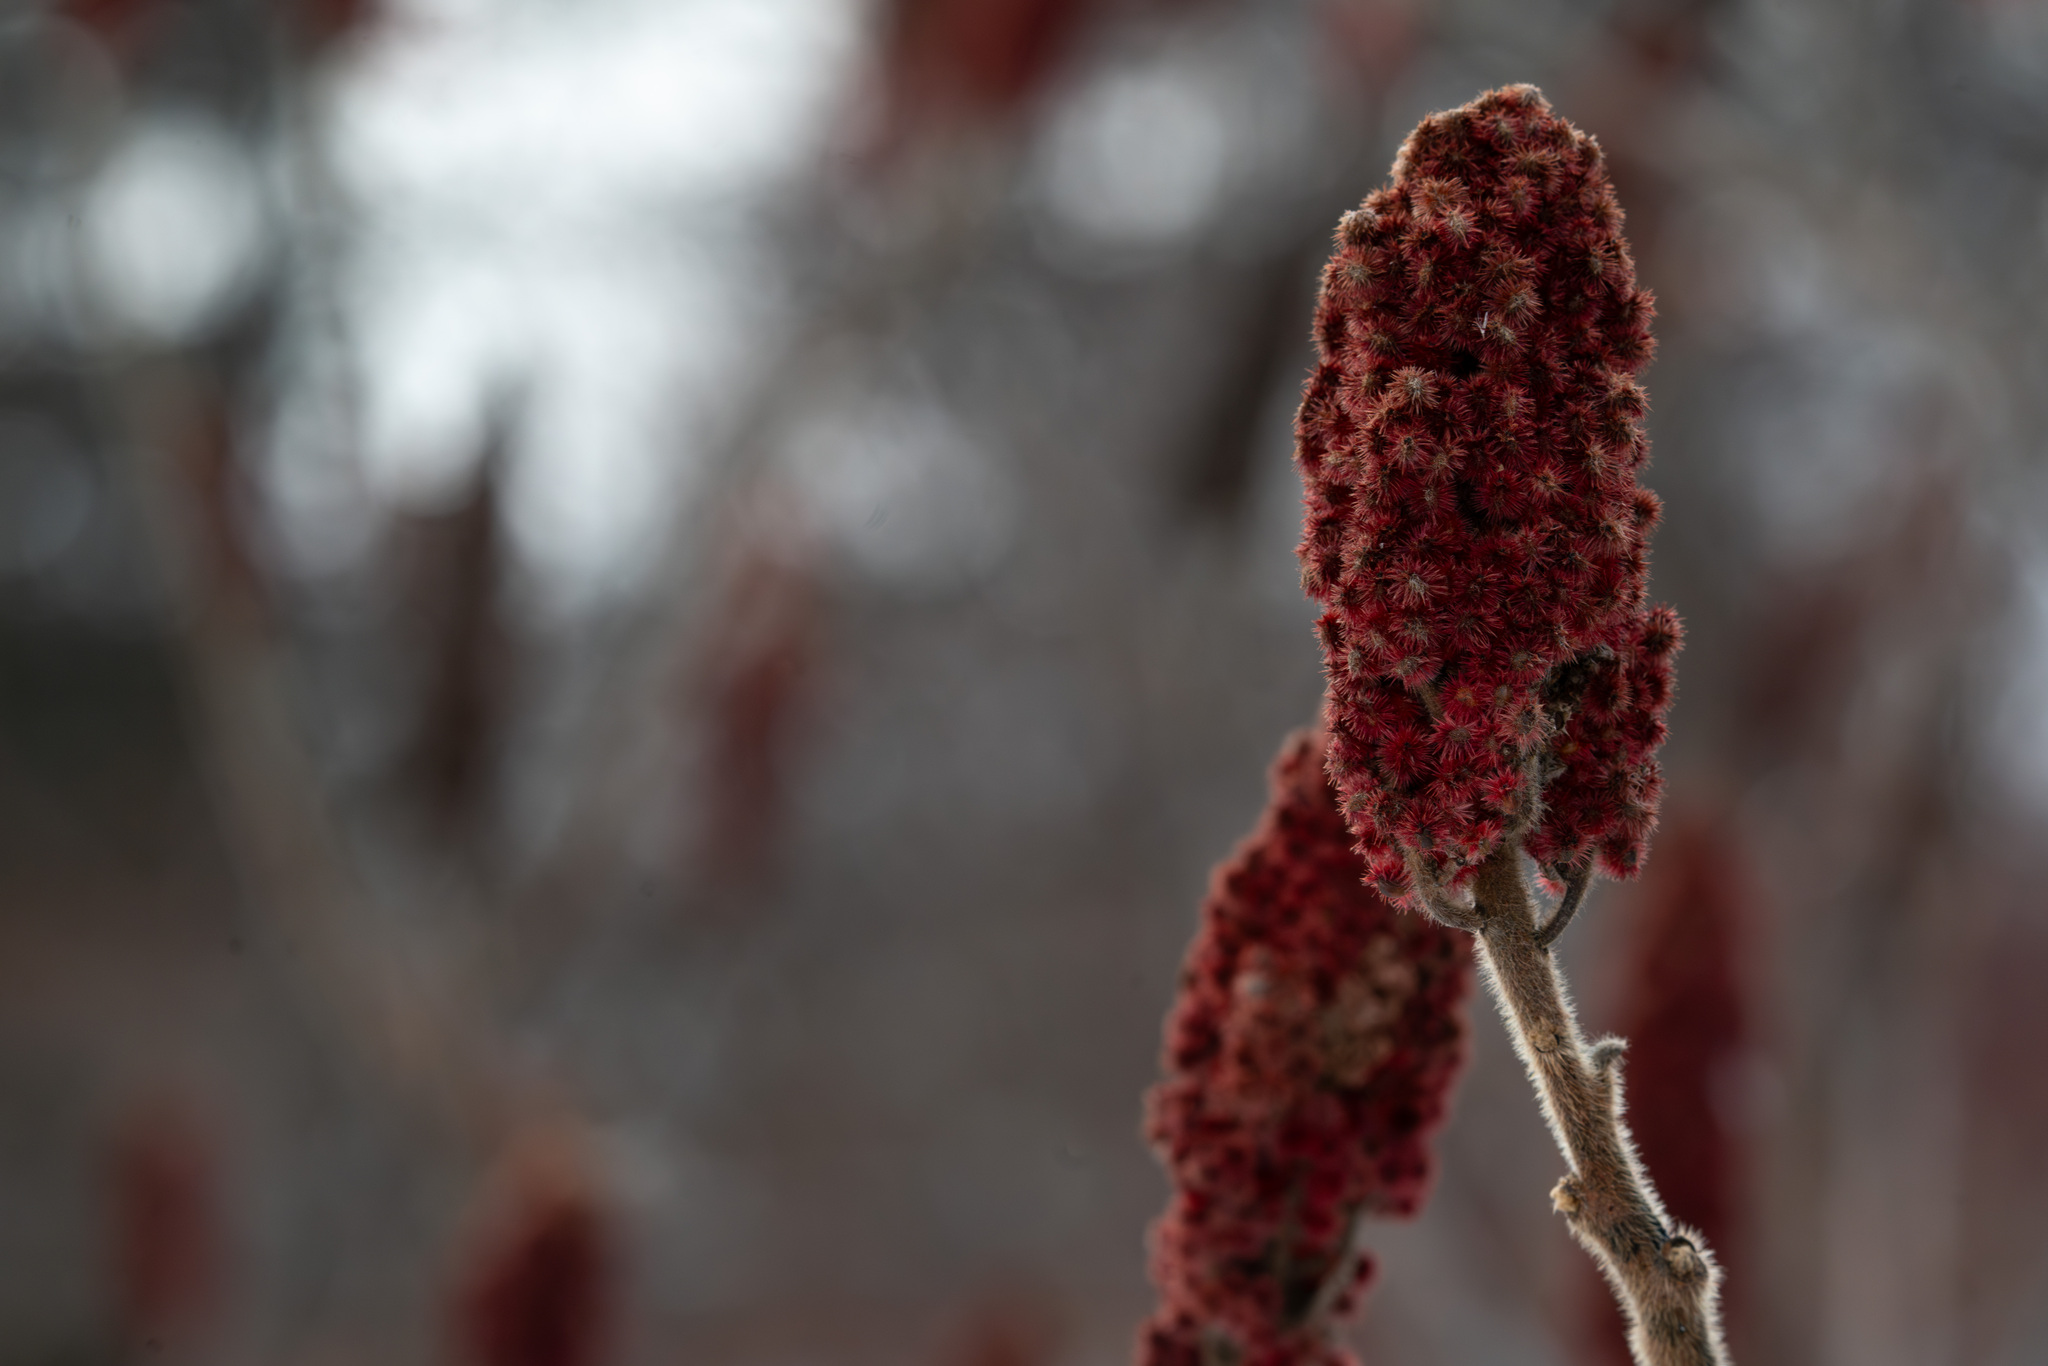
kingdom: Plantae
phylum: Tracheophyta
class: Magnoliopsida
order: Sapindales
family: Anacardiaceae
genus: Rhus
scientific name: Rhus typhina
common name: Staghorn sumac
